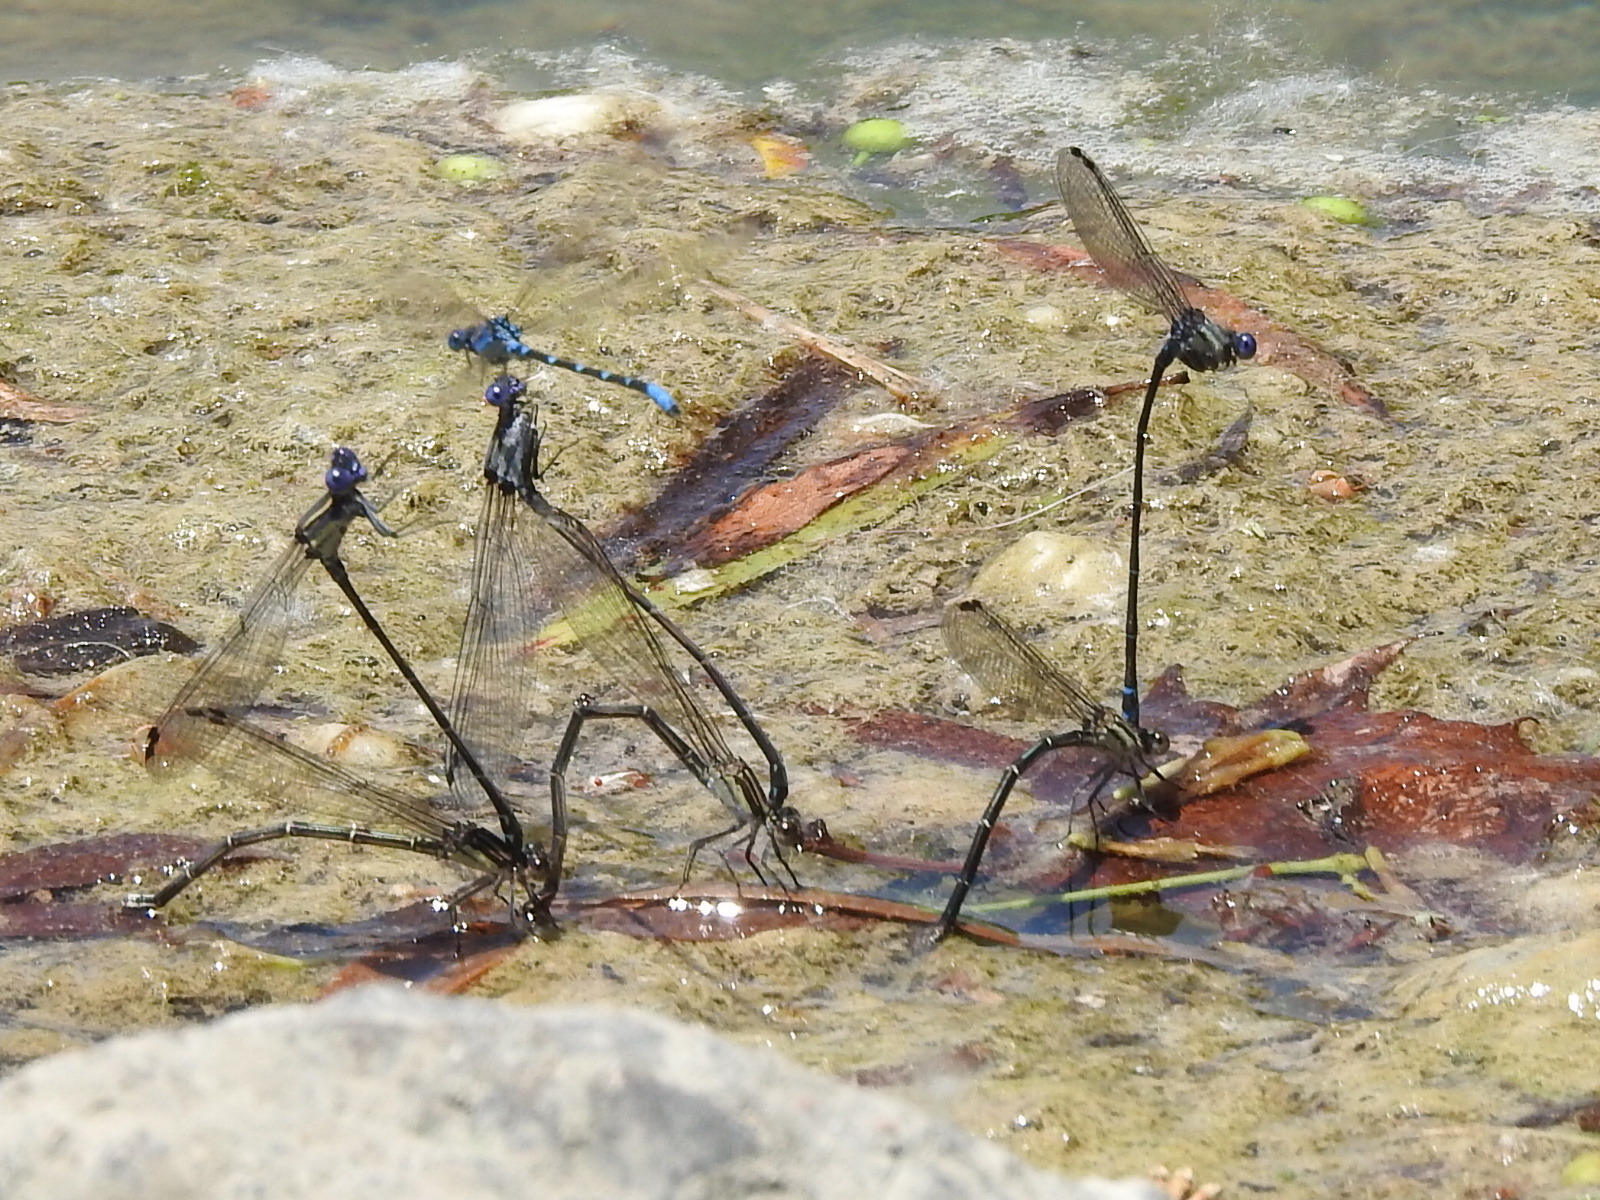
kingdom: Animalia
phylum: Arthropoda
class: Insecta
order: Odonata
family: Coenagrionidae
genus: Argia
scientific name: Argia translata
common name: Dusky dancer
